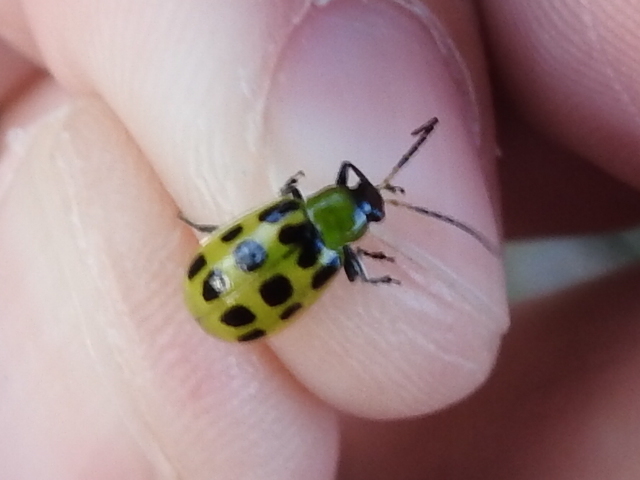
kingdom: Animalia
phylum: Arthropoda
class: Insecta
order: Coleoptera
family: Chrysomelidae
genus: Diabrotica
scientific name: Diabrotica undecimpunctata
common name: Spotted cucumber beetle
